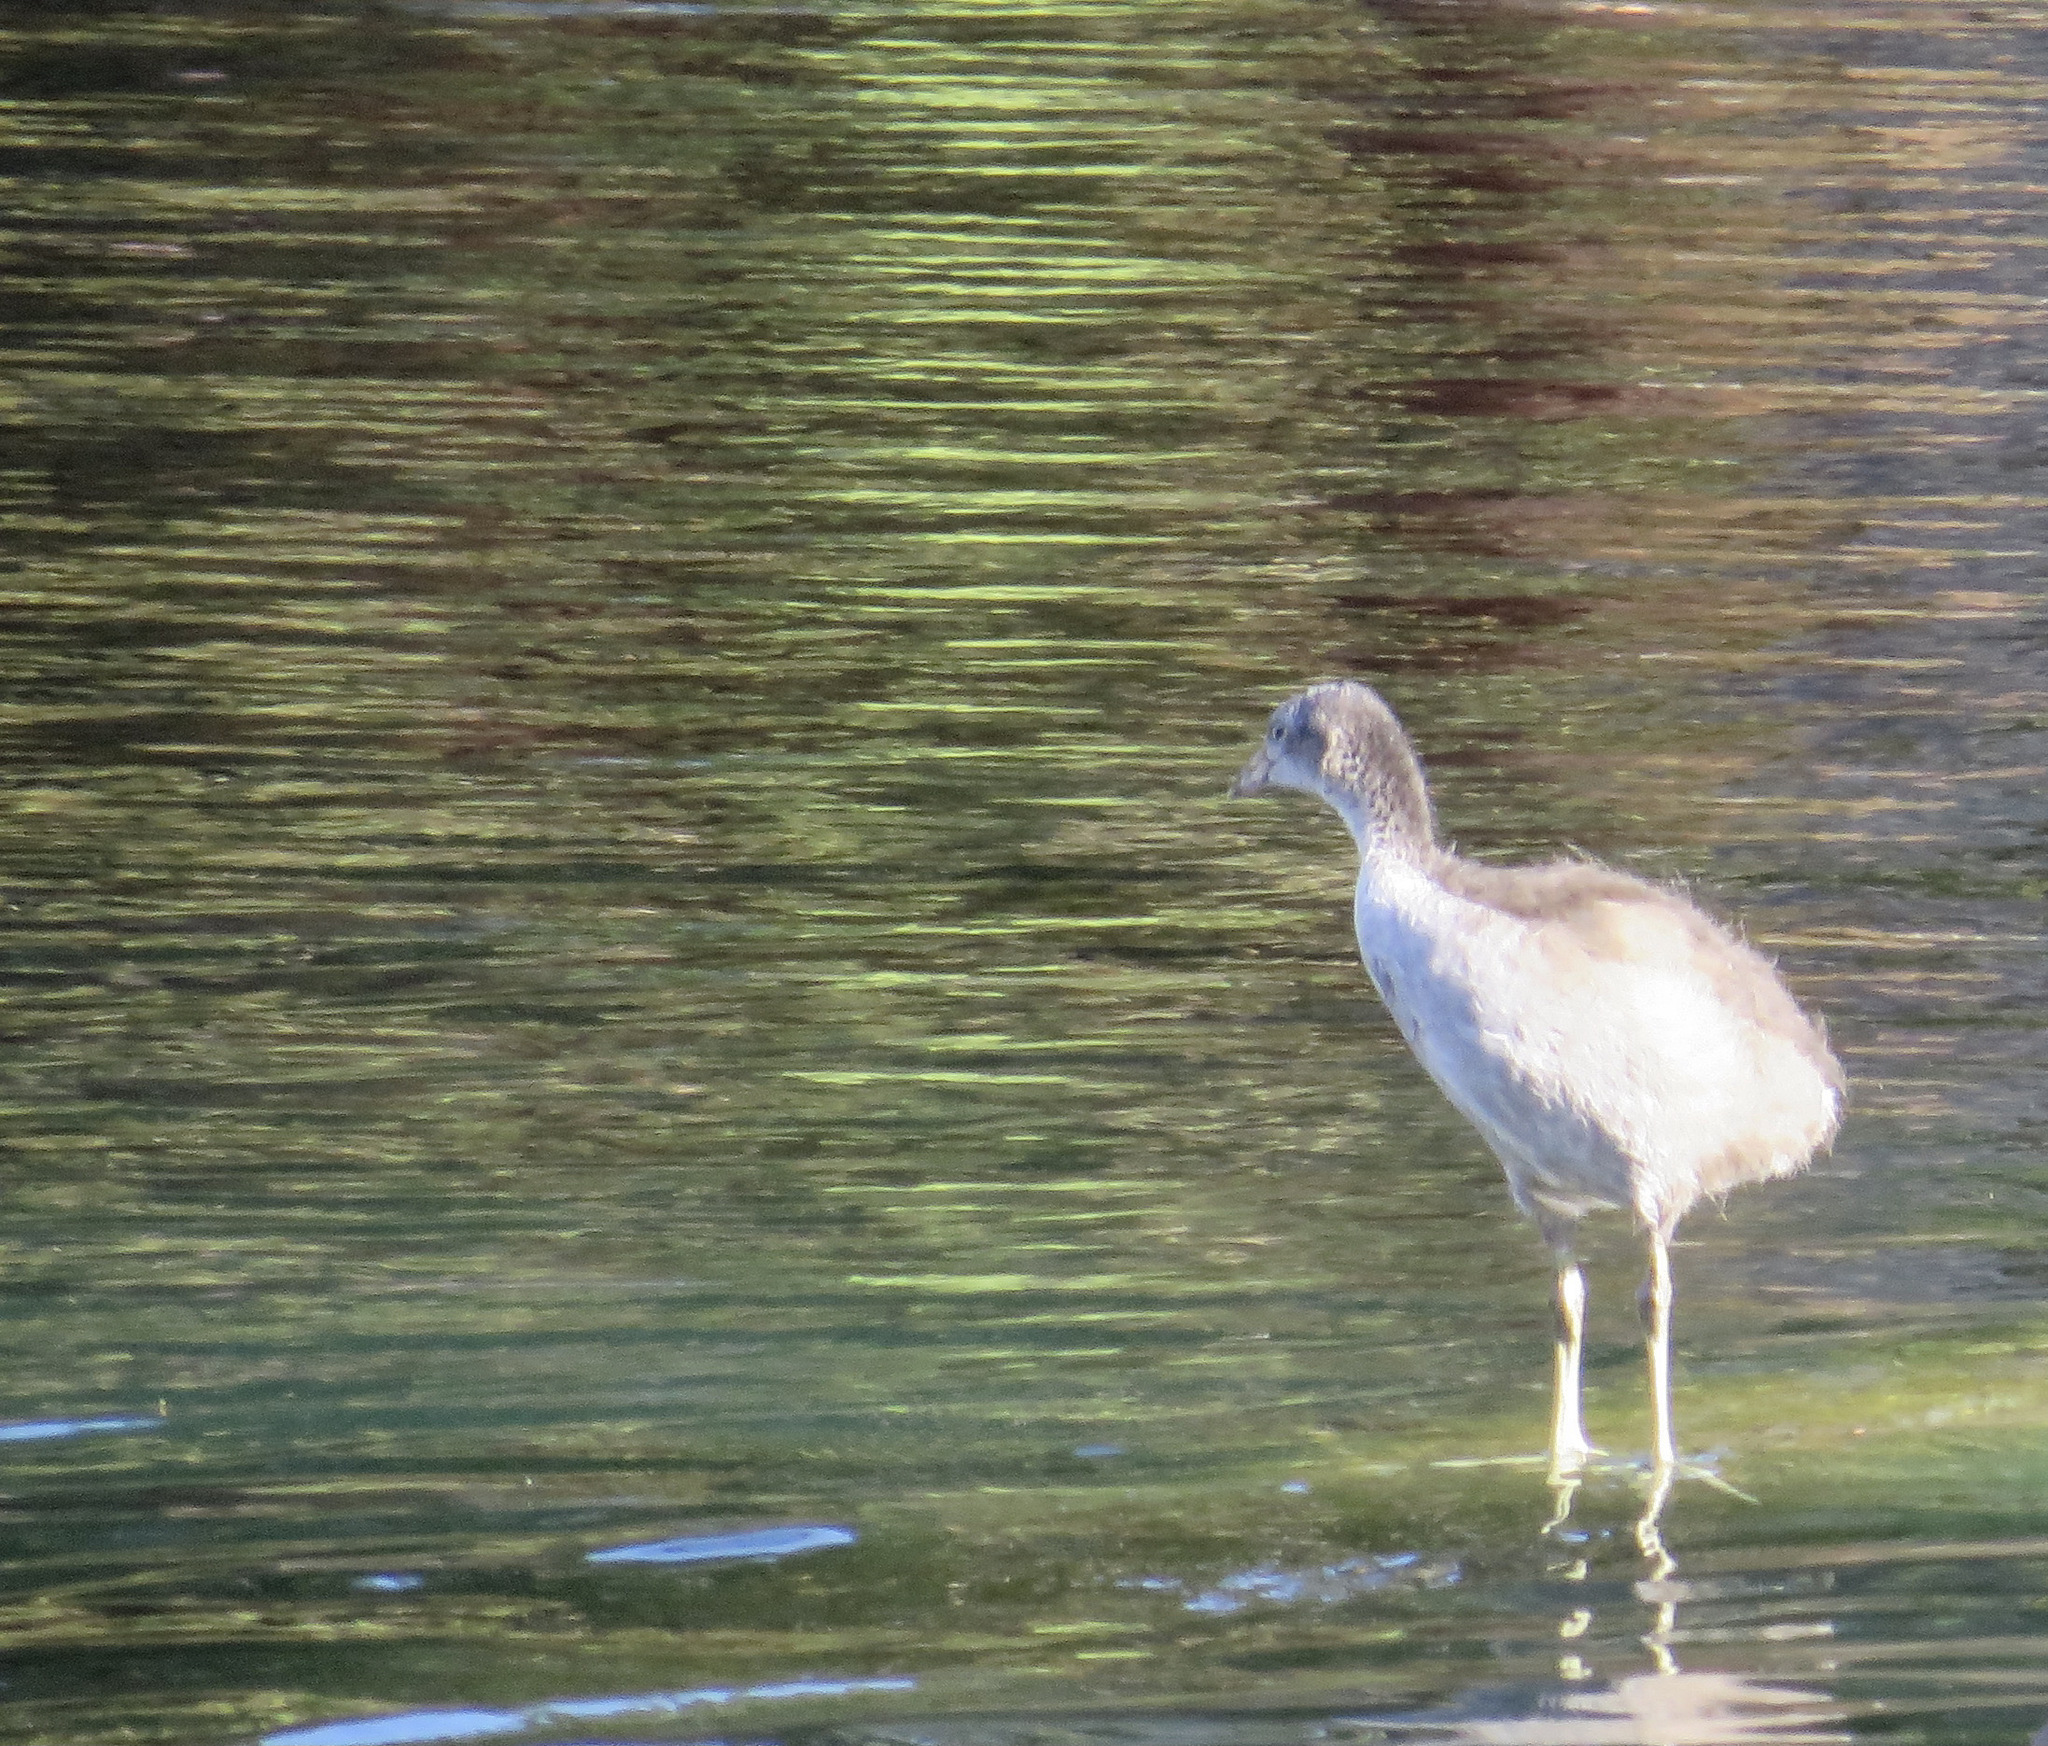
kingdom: Animalia
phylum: Chordata
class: Aves
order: Gruiformes
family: Rallidae
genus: Fulica
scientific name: Fulica americana
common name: American coot
